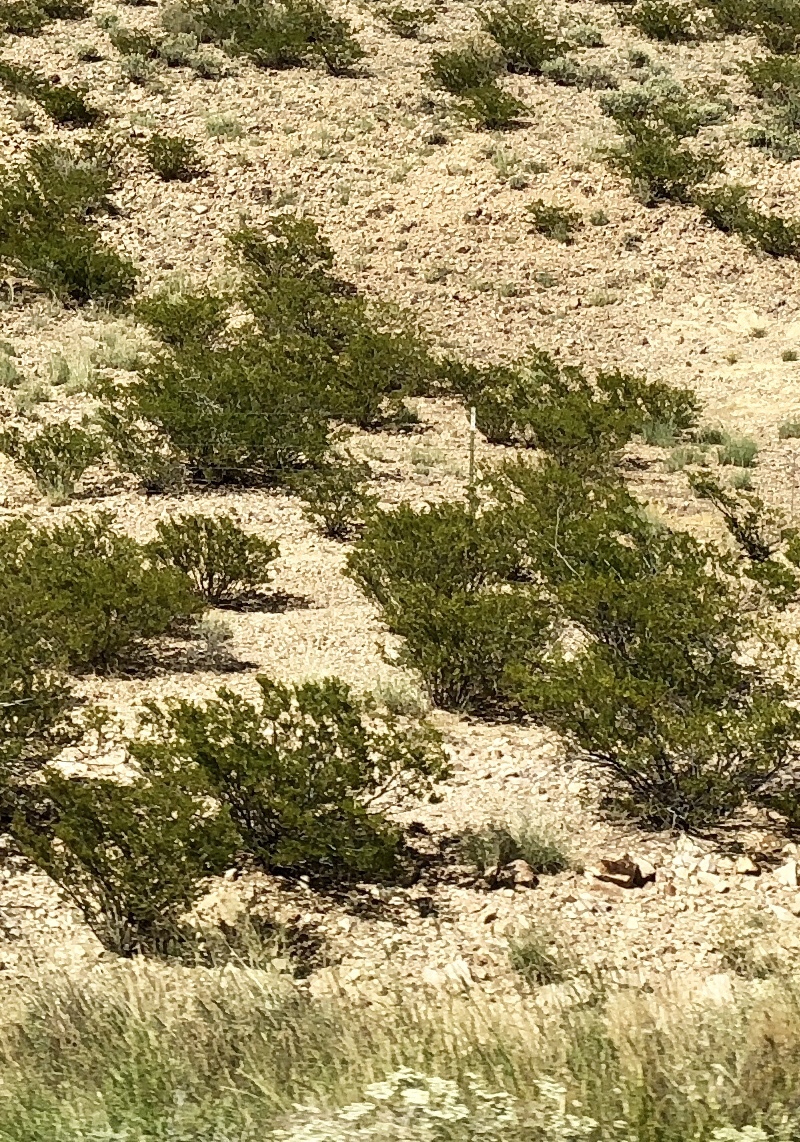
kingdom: Plantae
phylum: Tracheophyta
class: Magnoliopsida
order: Zygophyllales
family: Zygophyllaceae
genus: Larrea
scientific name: Larrea tridentata
